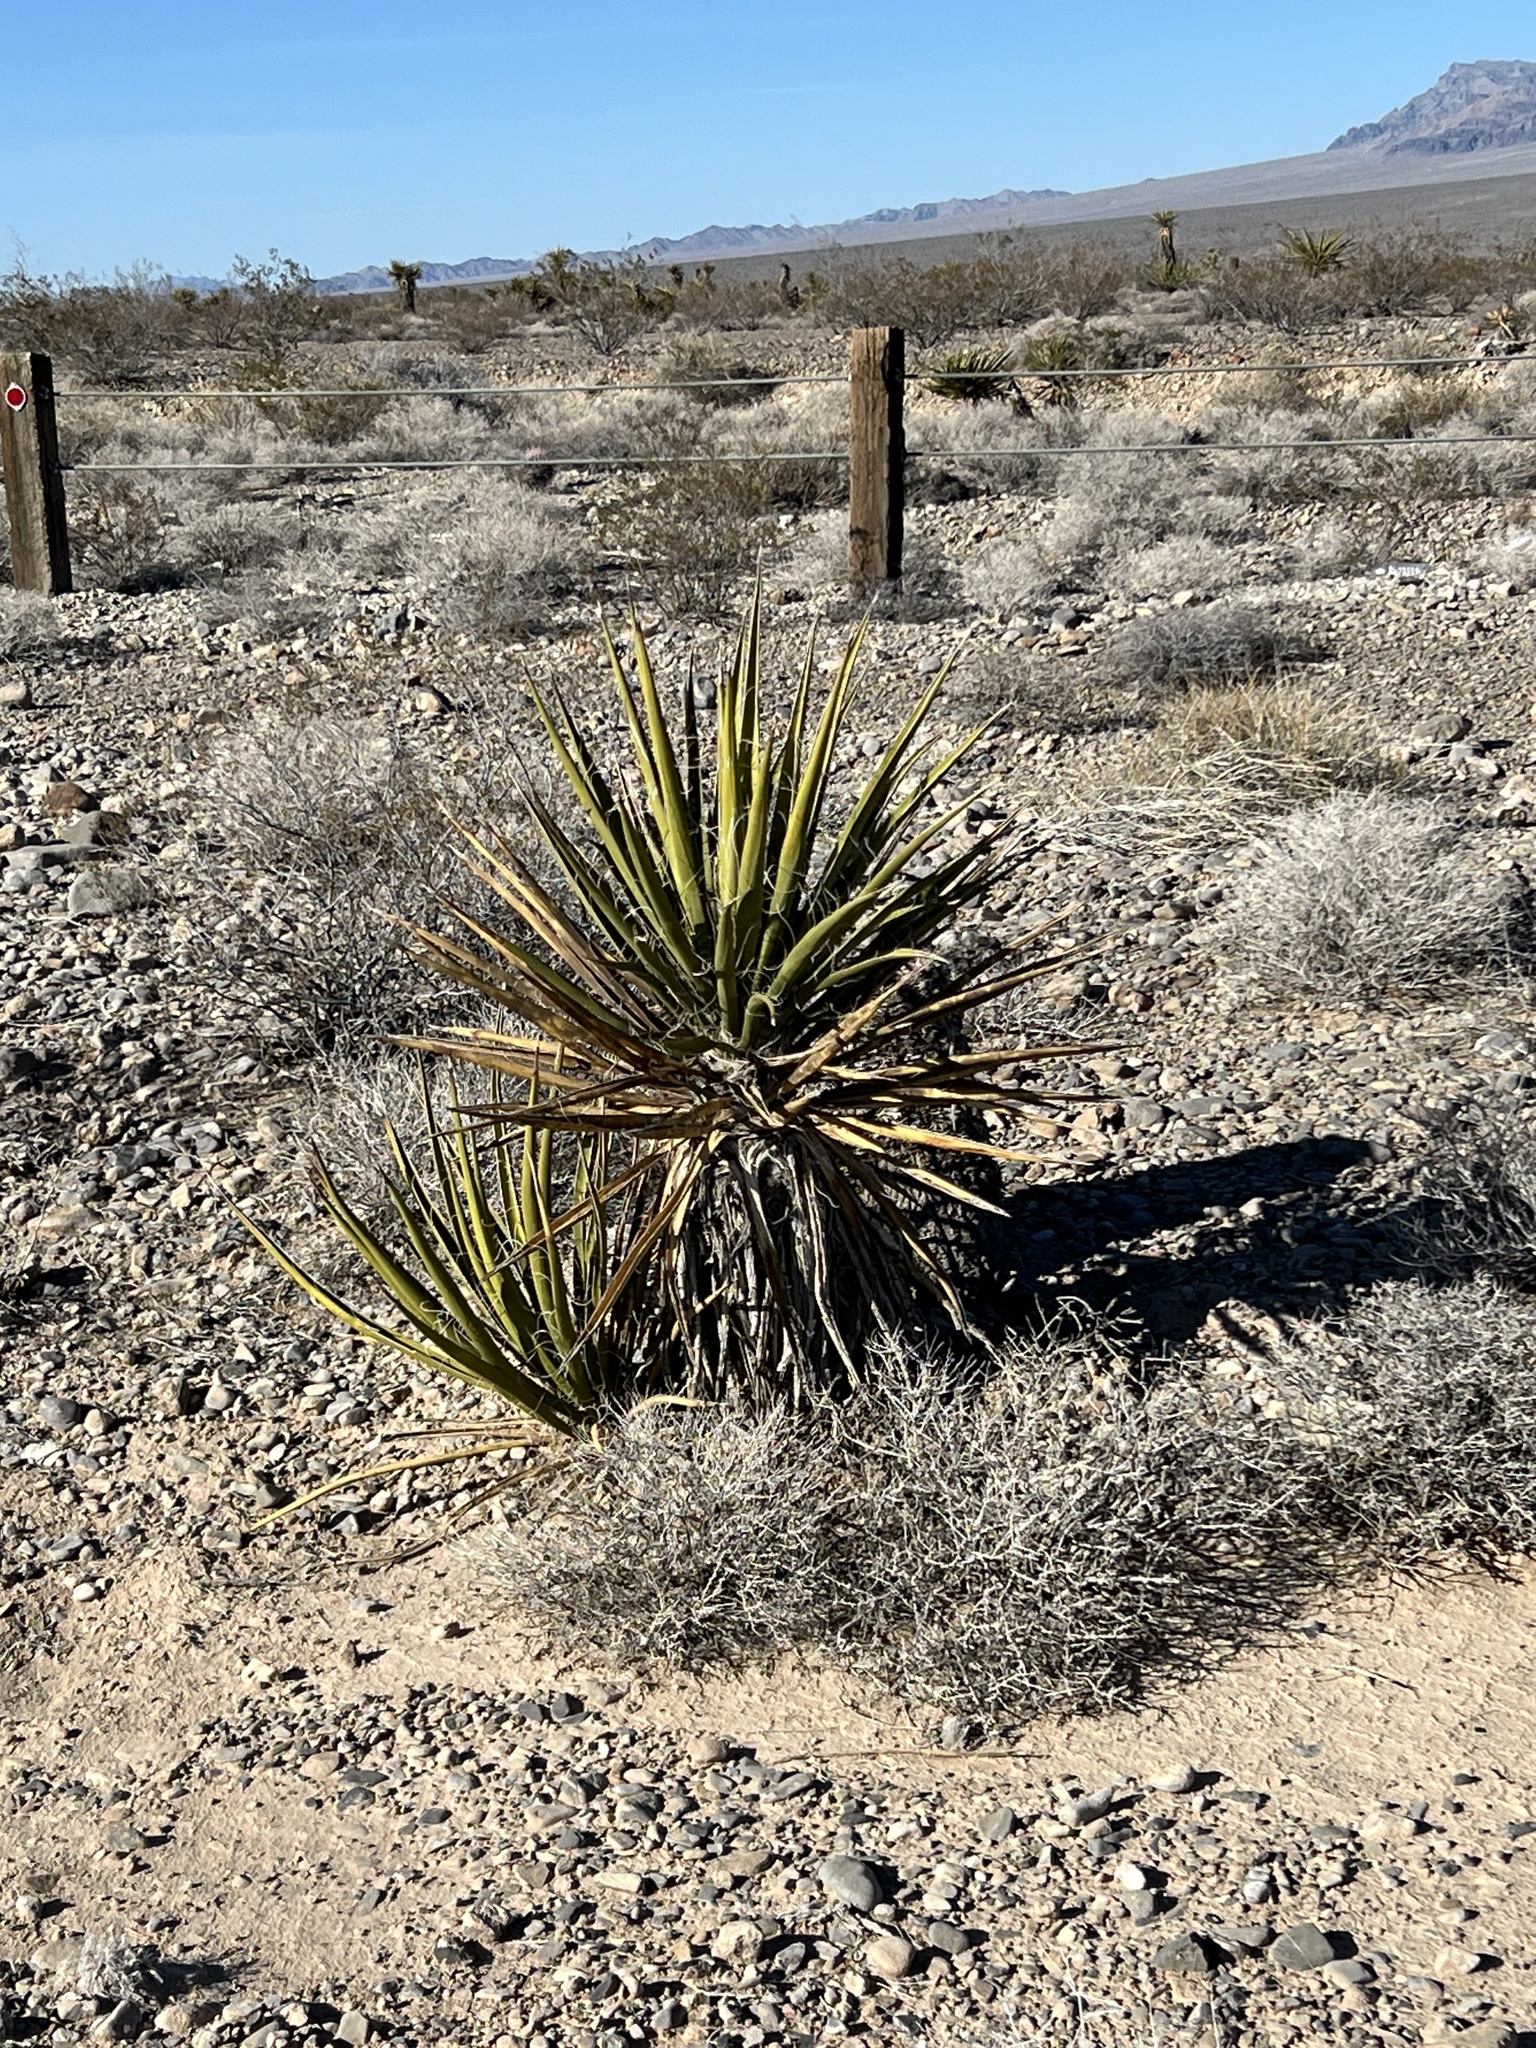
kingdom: Plantae
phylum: Tracheophyta
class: Liliopsida
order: Asparagales
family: Asparagaceae
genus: Yucca
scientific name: Yucca schidigera
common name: Mojave yucca
